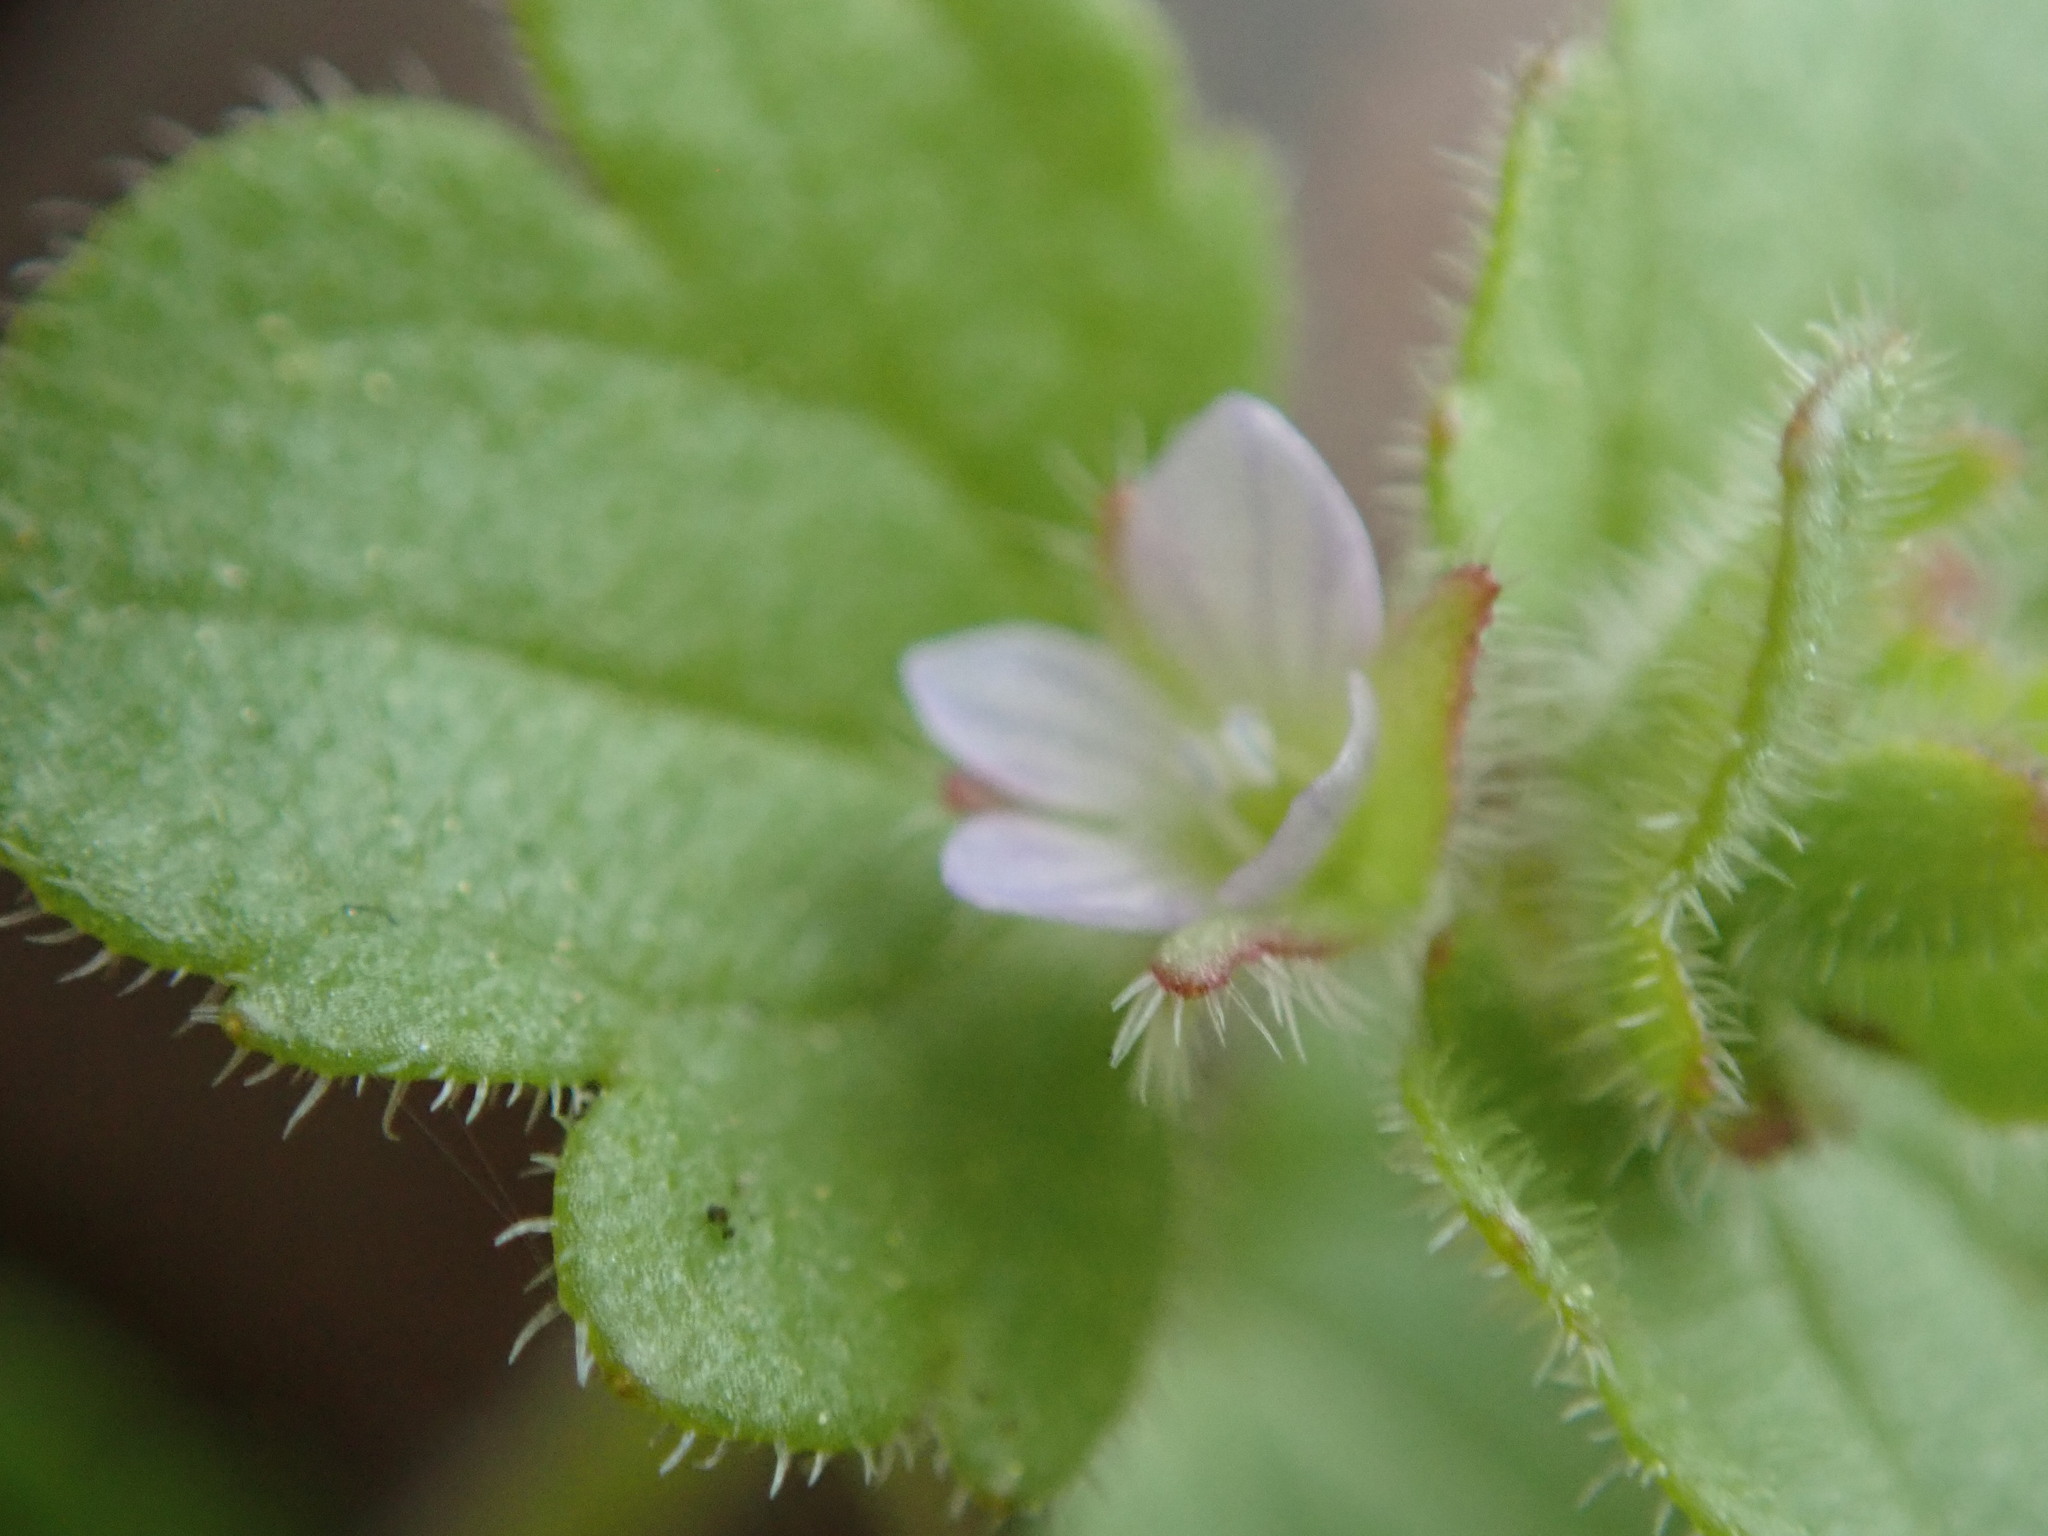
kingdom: Plantae
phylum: Tracheophyta
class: Magnoliopsida
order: Lamiales
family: Plantaginaceae
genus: Veronica
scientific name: Veronica hederifolia
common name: Ivy-leaved speedwell
